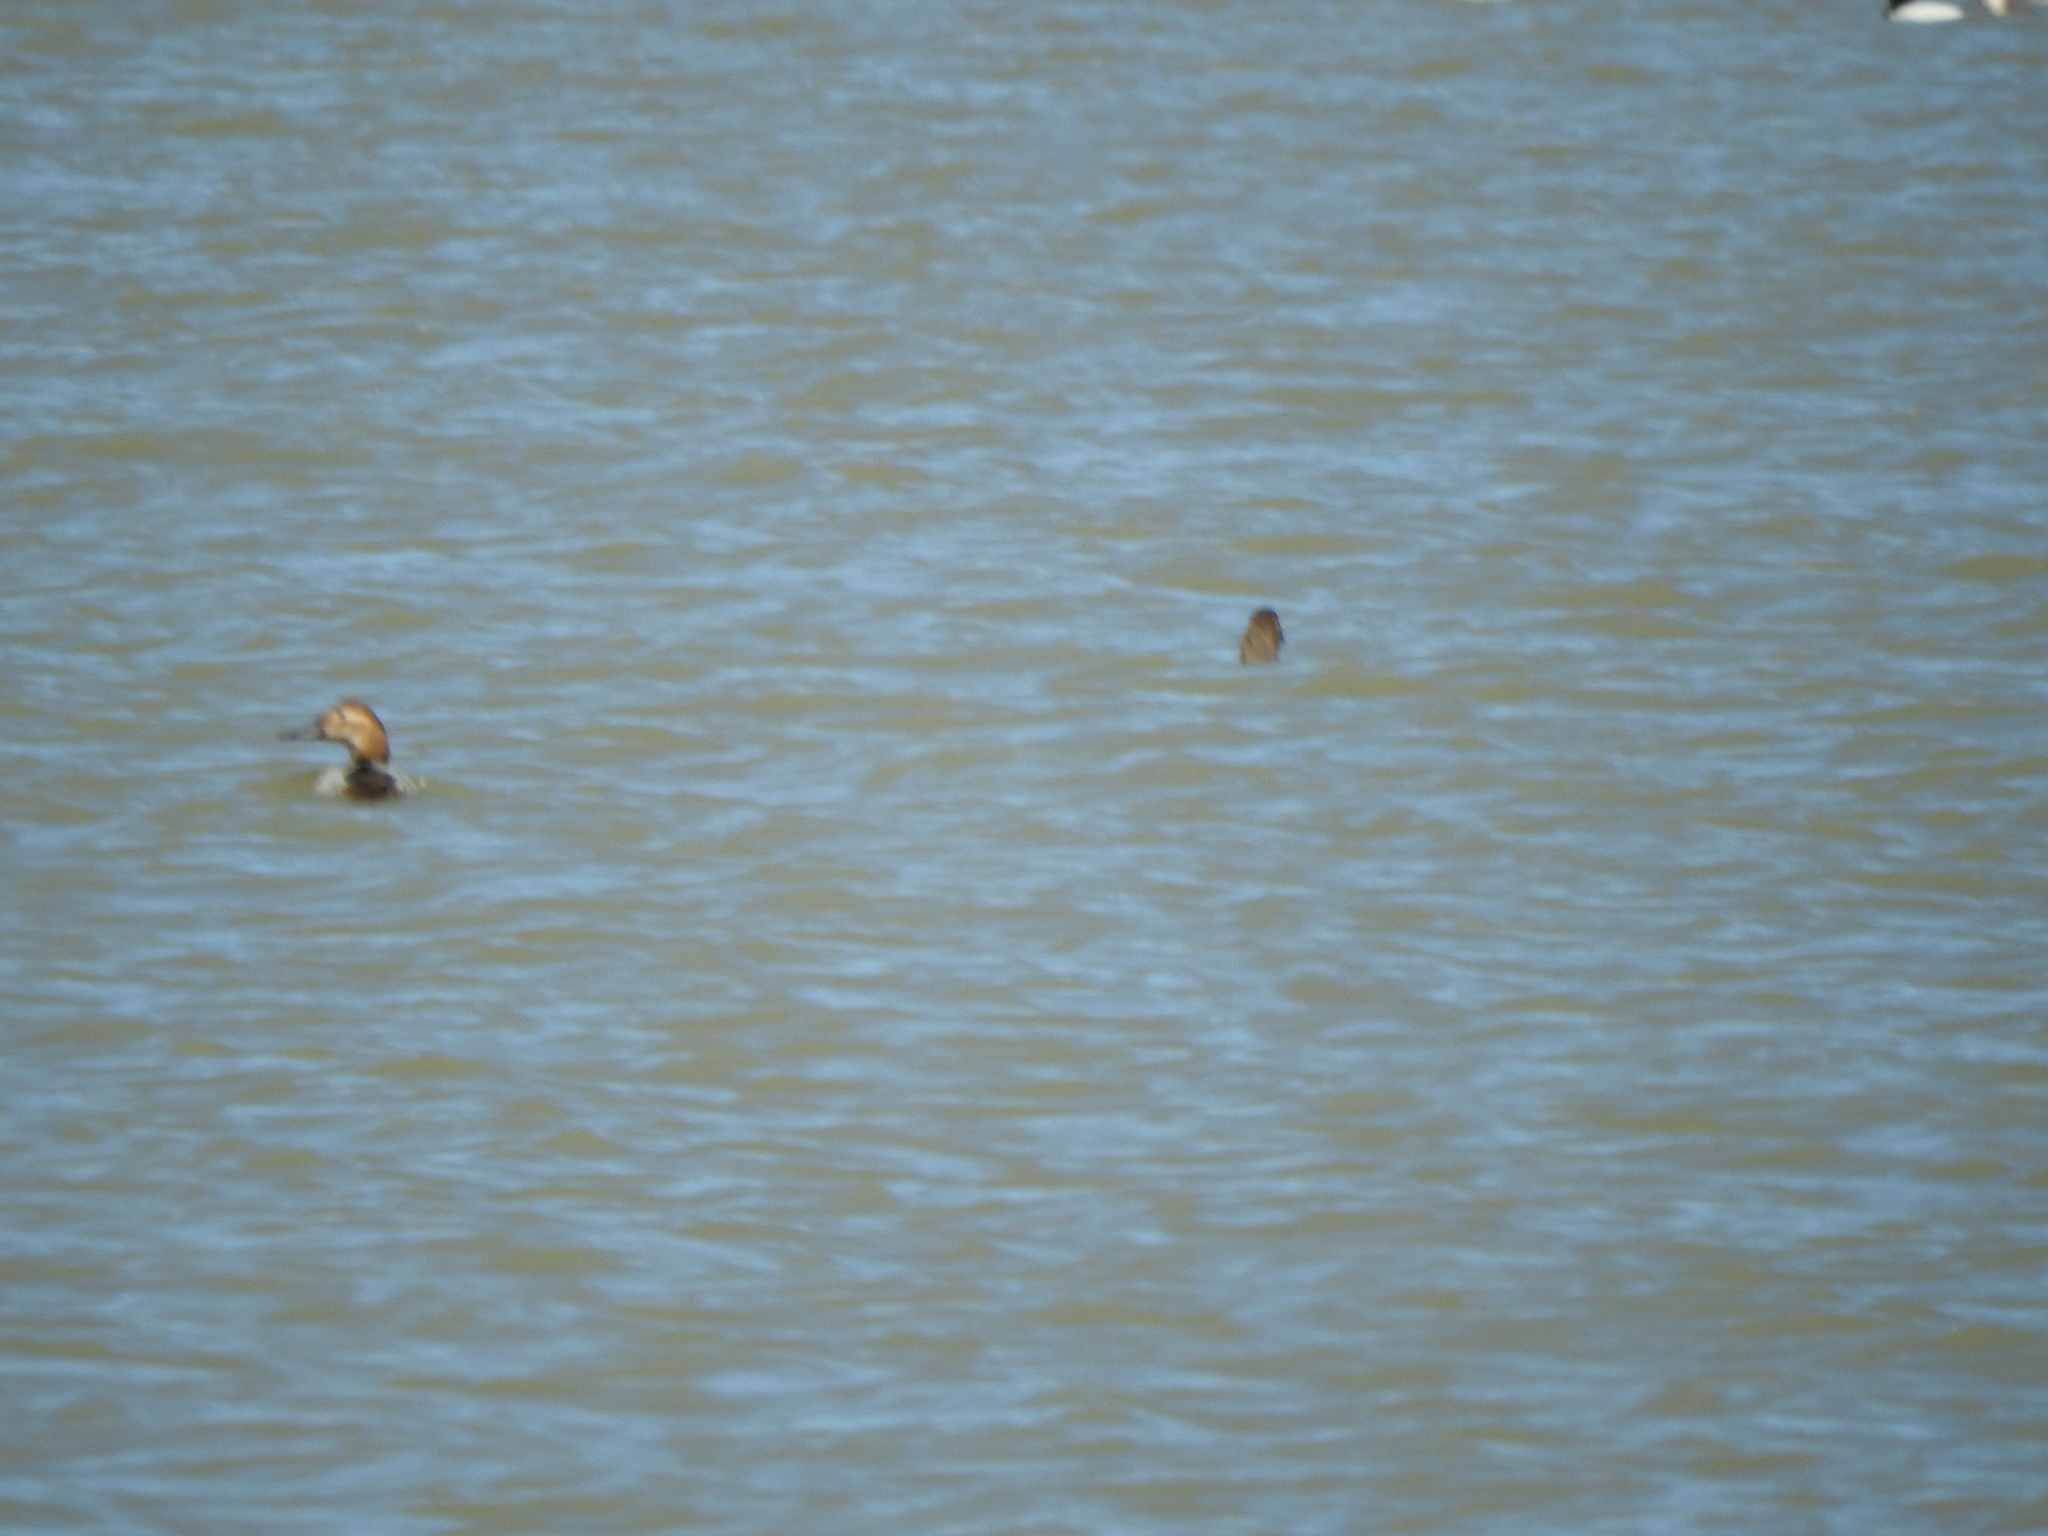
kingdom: Animalia
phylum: Chordata
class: Aves
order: Anseriformes
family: Anatidae
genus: Aythya
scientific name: Aythya valisineria
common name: Canvasback
